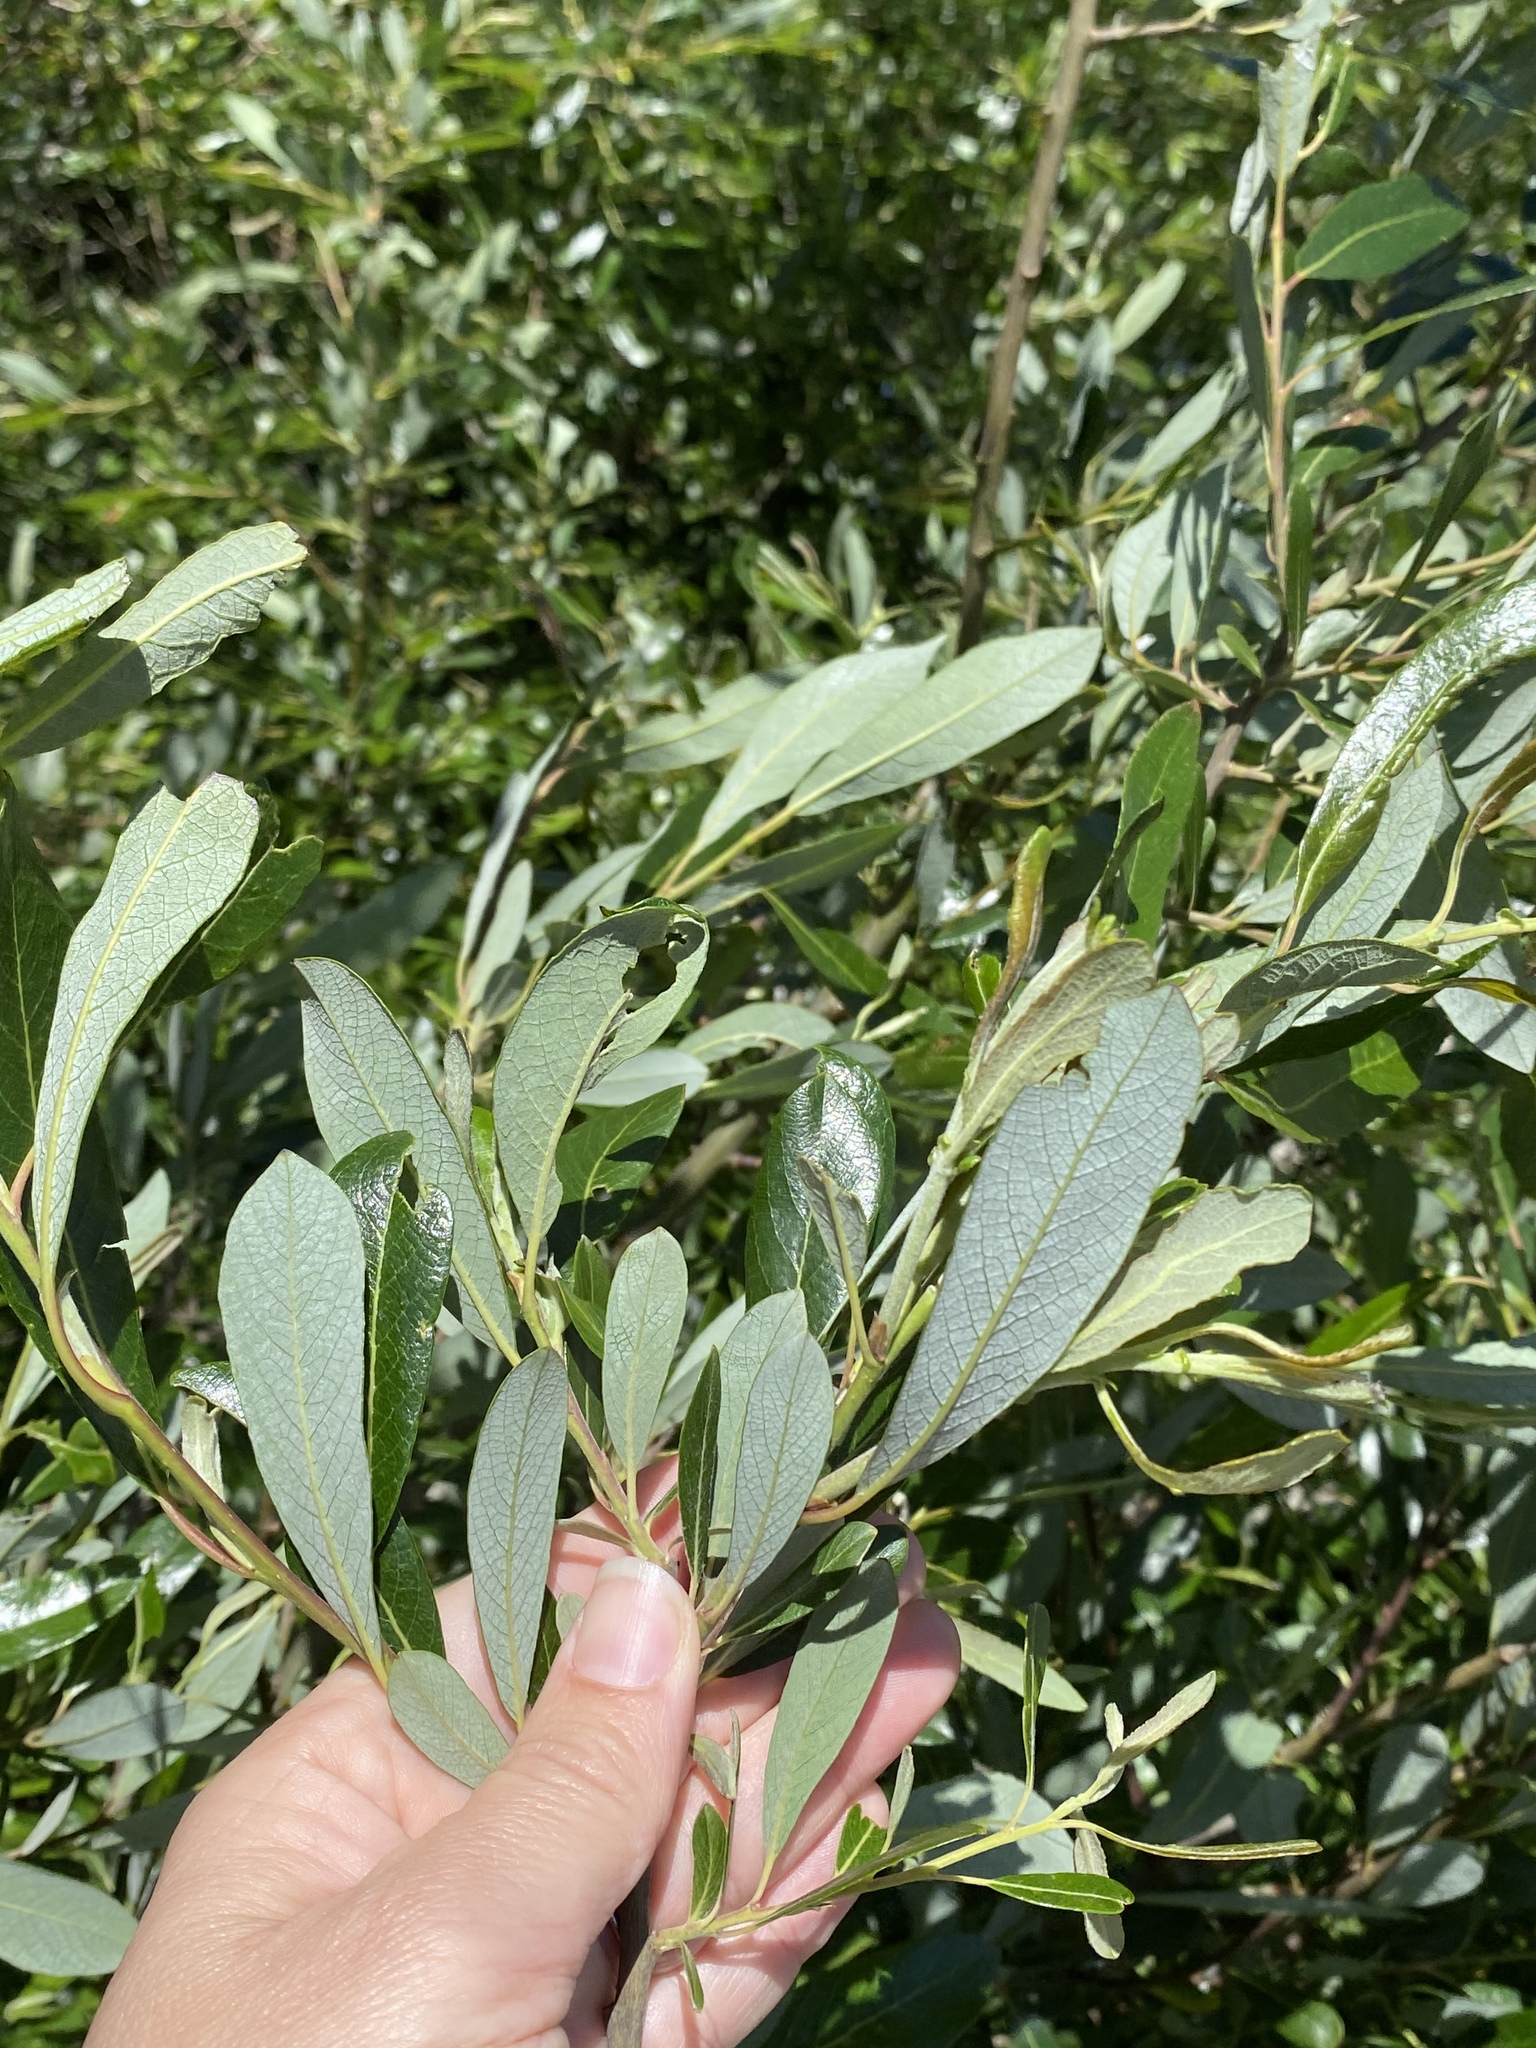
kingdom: Plantae
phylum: Tracheophyta
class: Magnoliopsida
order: Malpighiales
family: Salicaceae
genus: Salix
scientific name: Salix lasiolepis
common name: Arroyo willow
